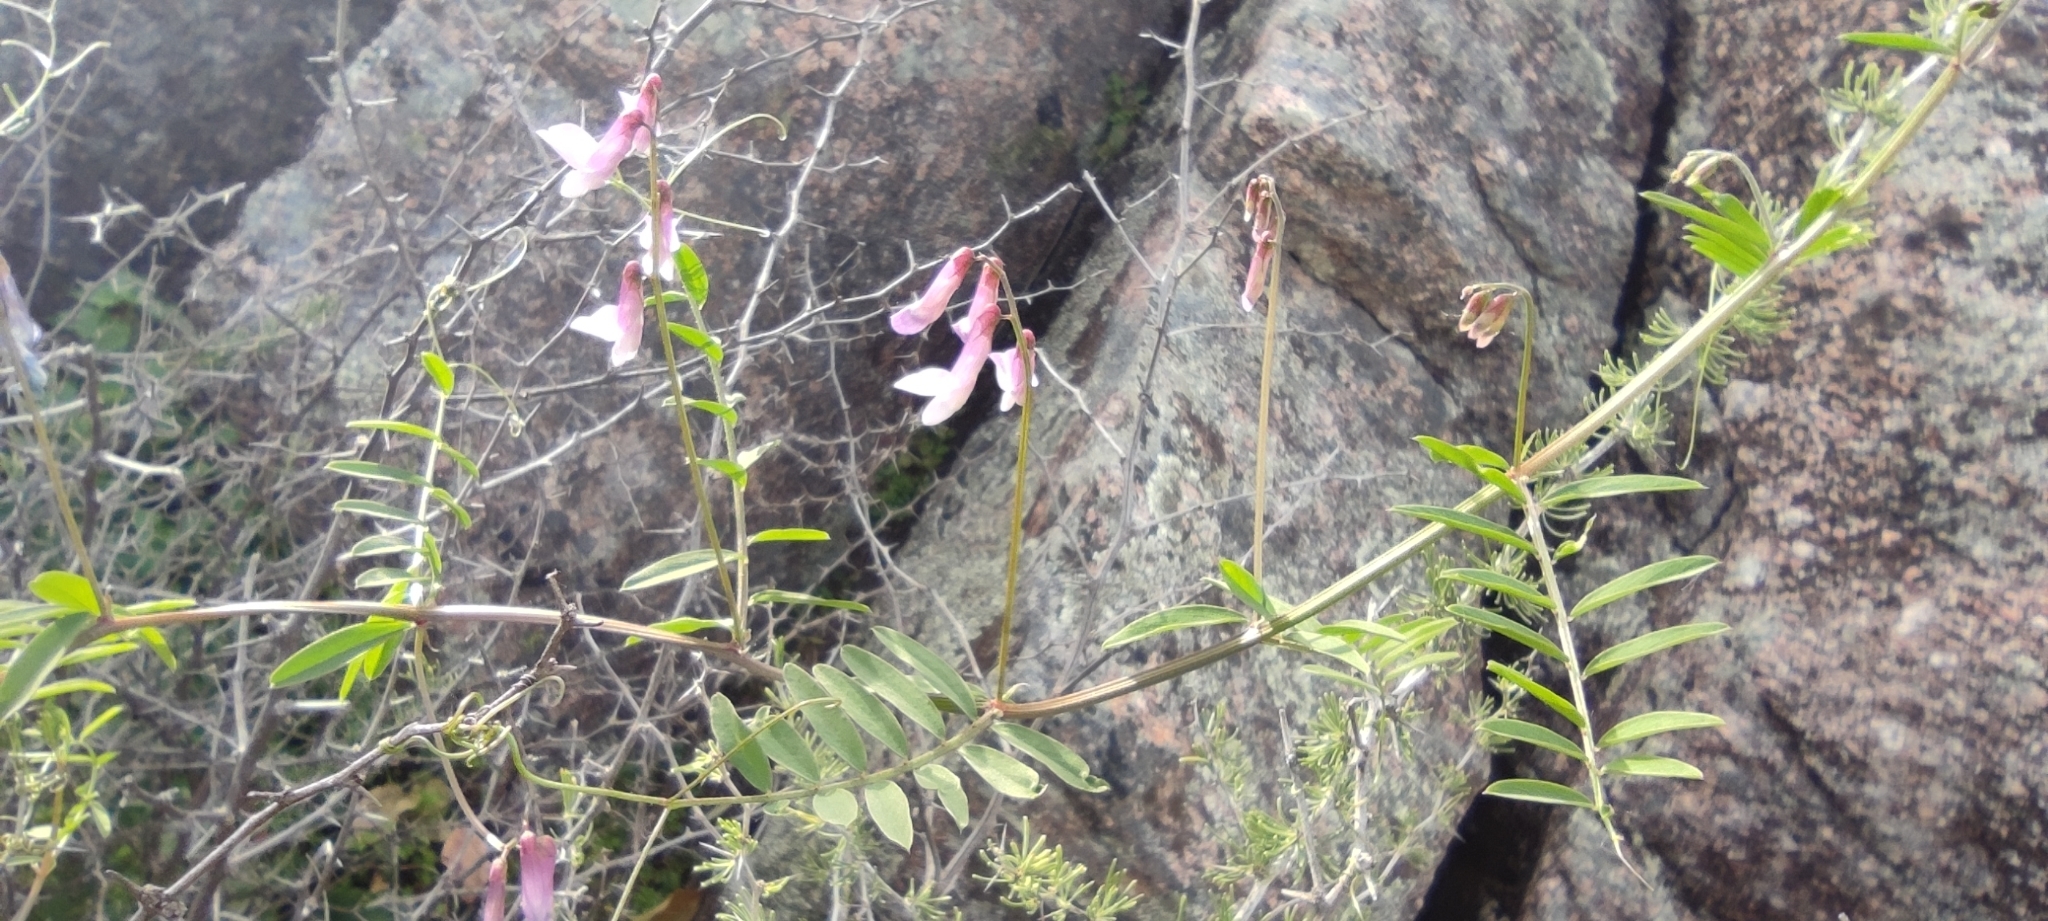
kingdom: Plantae
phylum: Tracheophyta
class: Magnoliopsida
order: Fabales
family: Fabaceae
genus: Vicia
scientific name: Vicia villosa
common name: Fodder vetch
